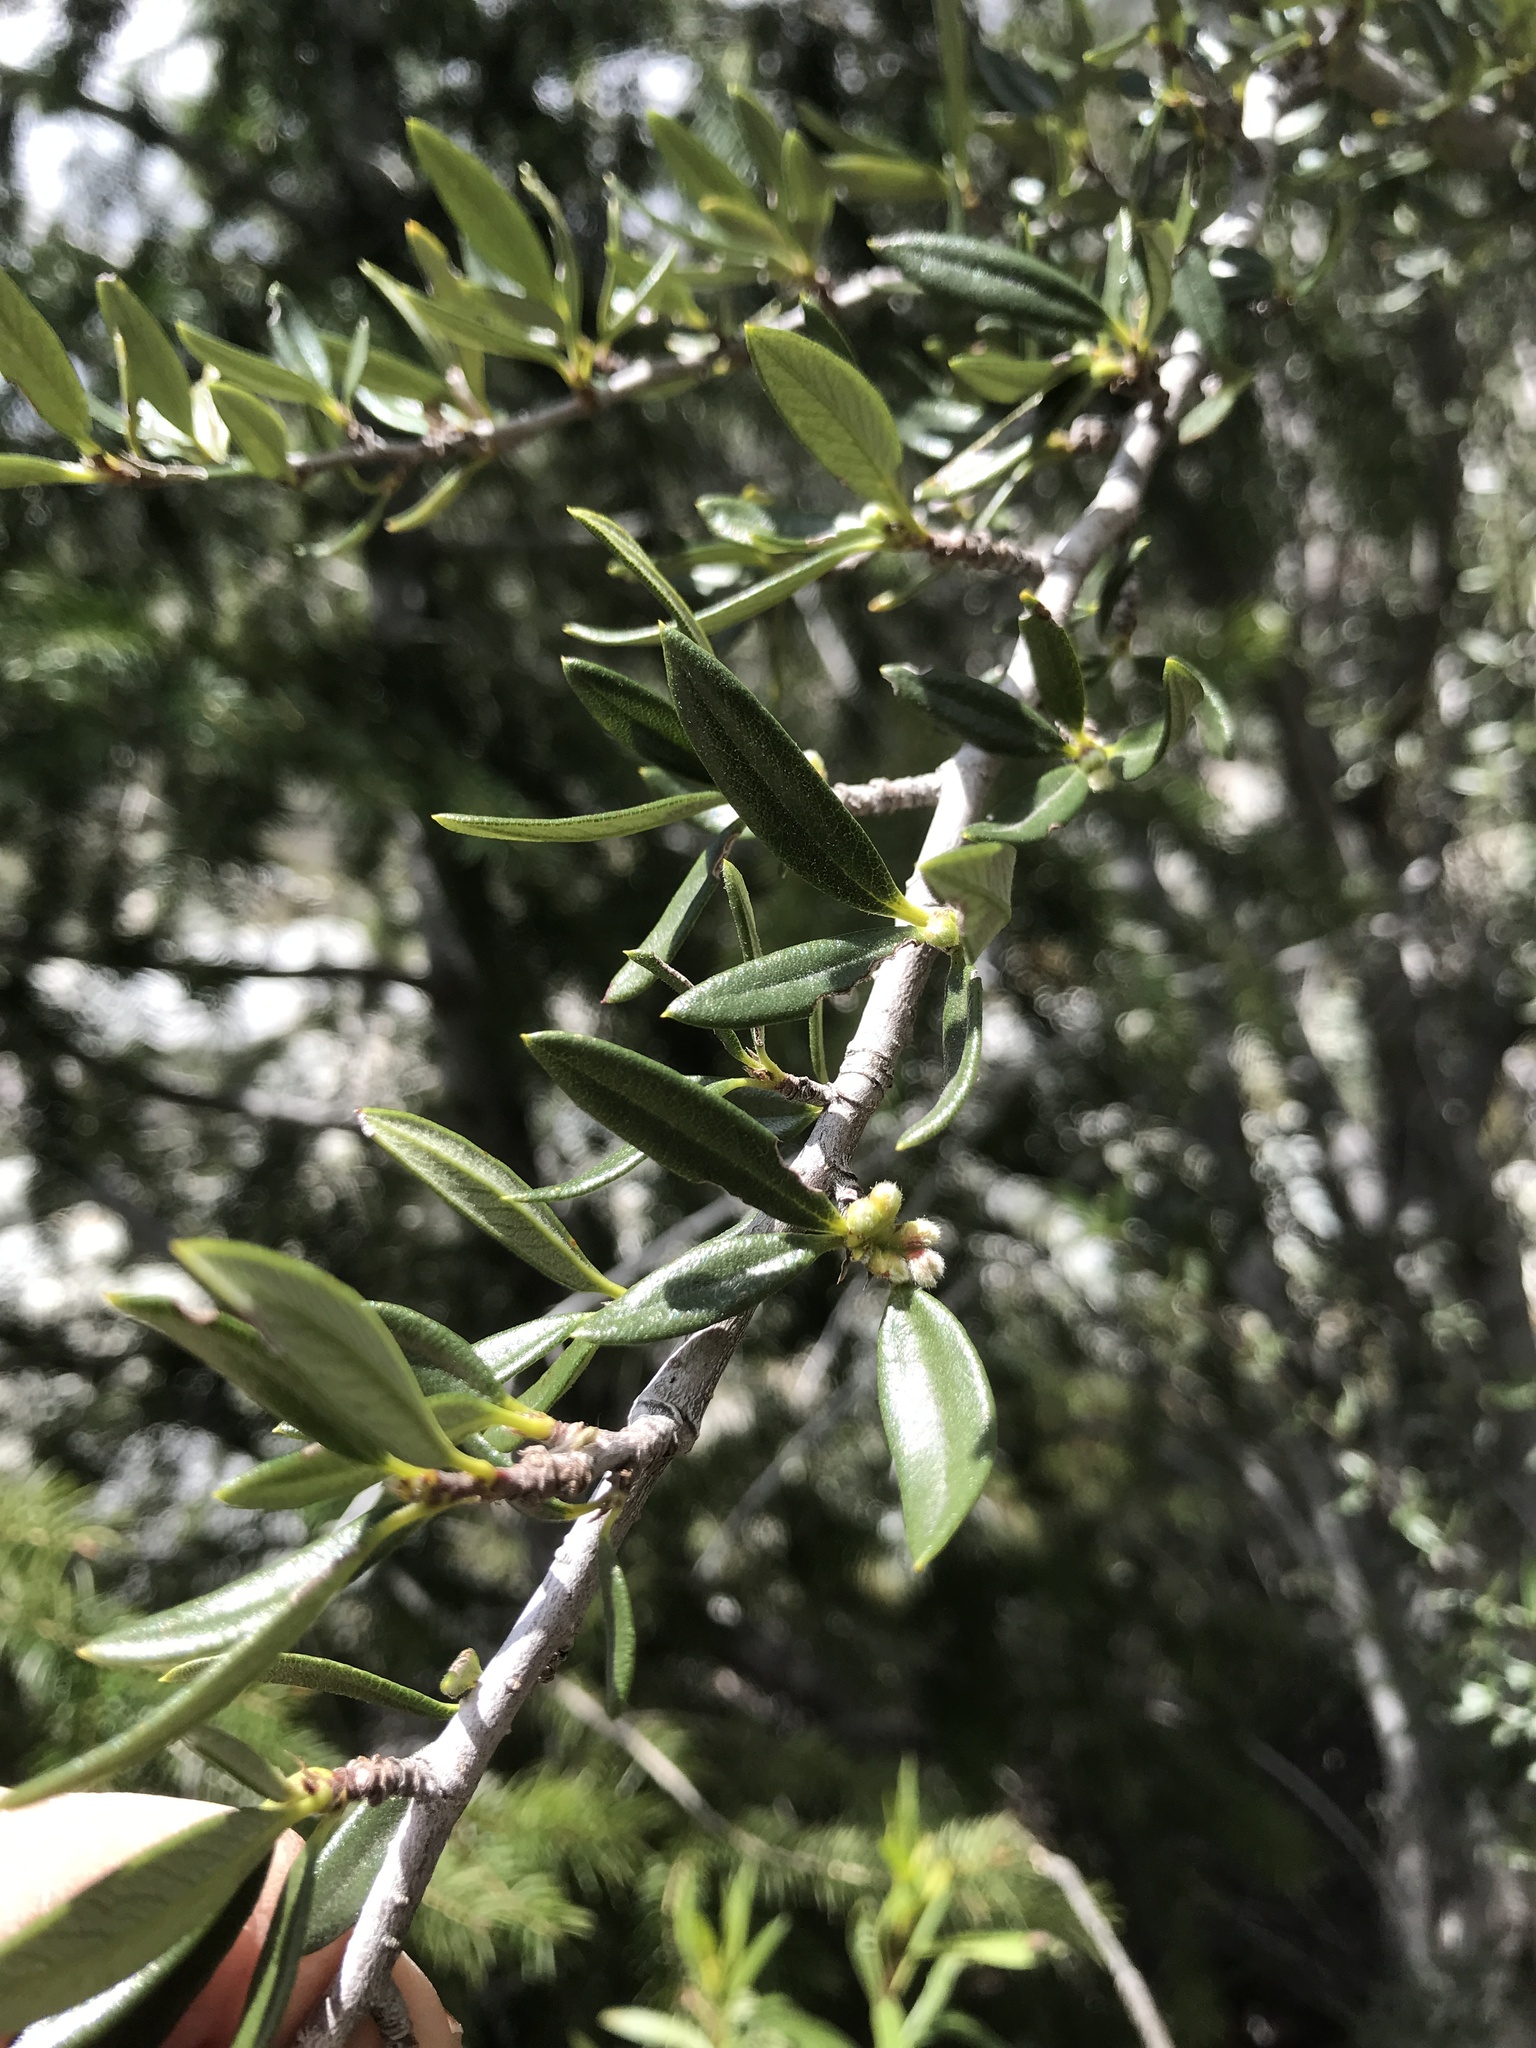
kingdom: Plantae
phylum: Tracheophyta
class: Magnoliopsida
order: Rosales
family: Rosaceae
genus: Cercocarpus
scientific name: Cercocarpus ledifolius
